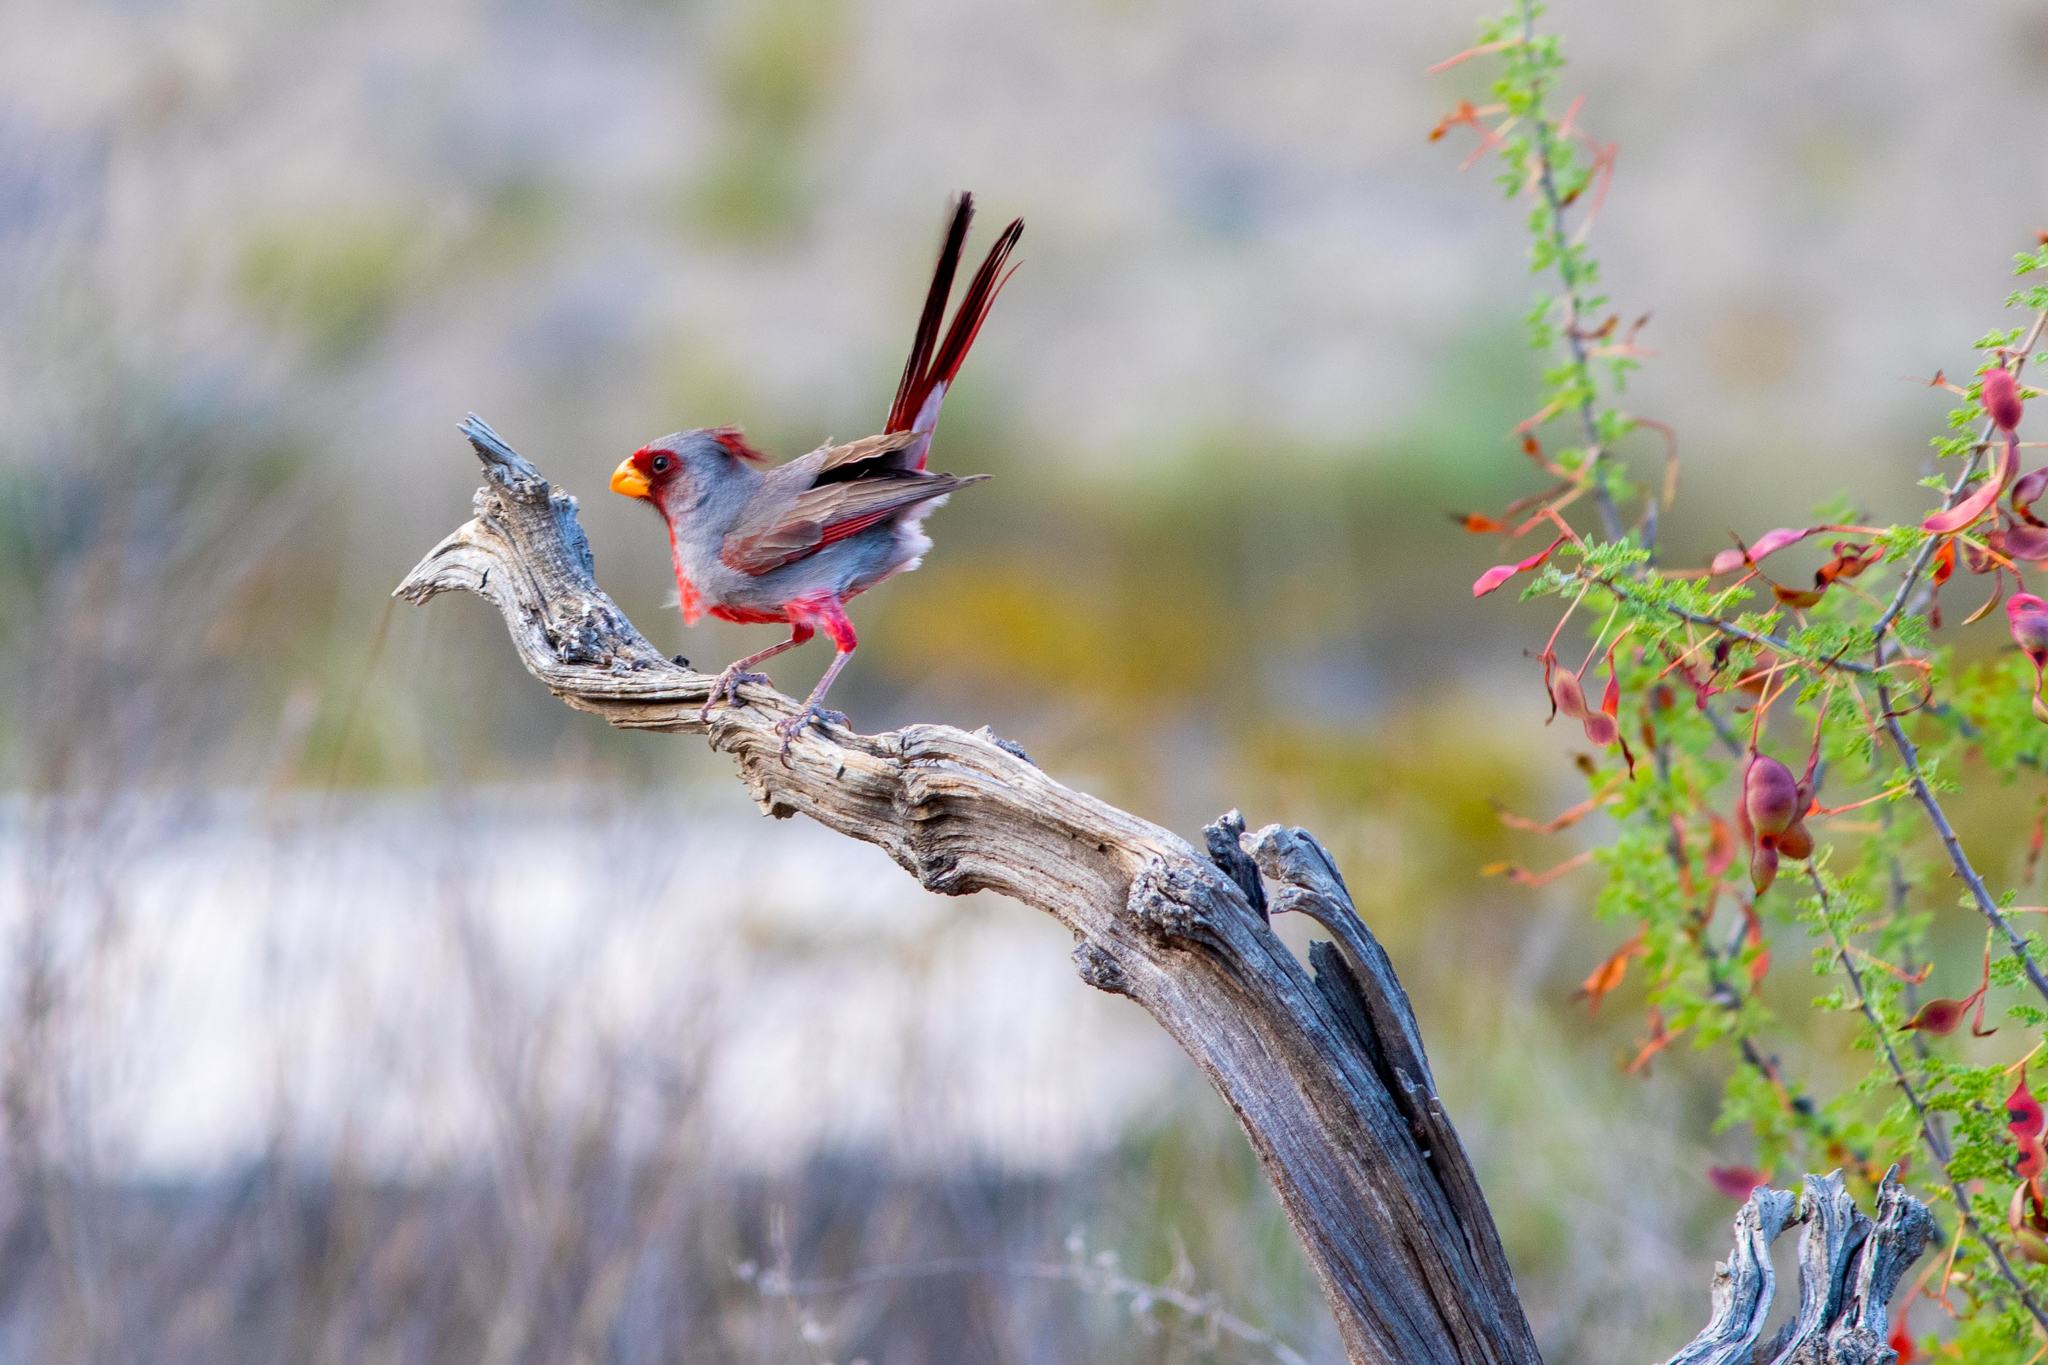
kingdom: Animalia
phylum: Chordata
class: Aves
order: Passeriformes
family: Cardinalidae
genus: Cardinalis
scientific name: Cardinalis sinuatus
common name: Pyrrhuloxia
